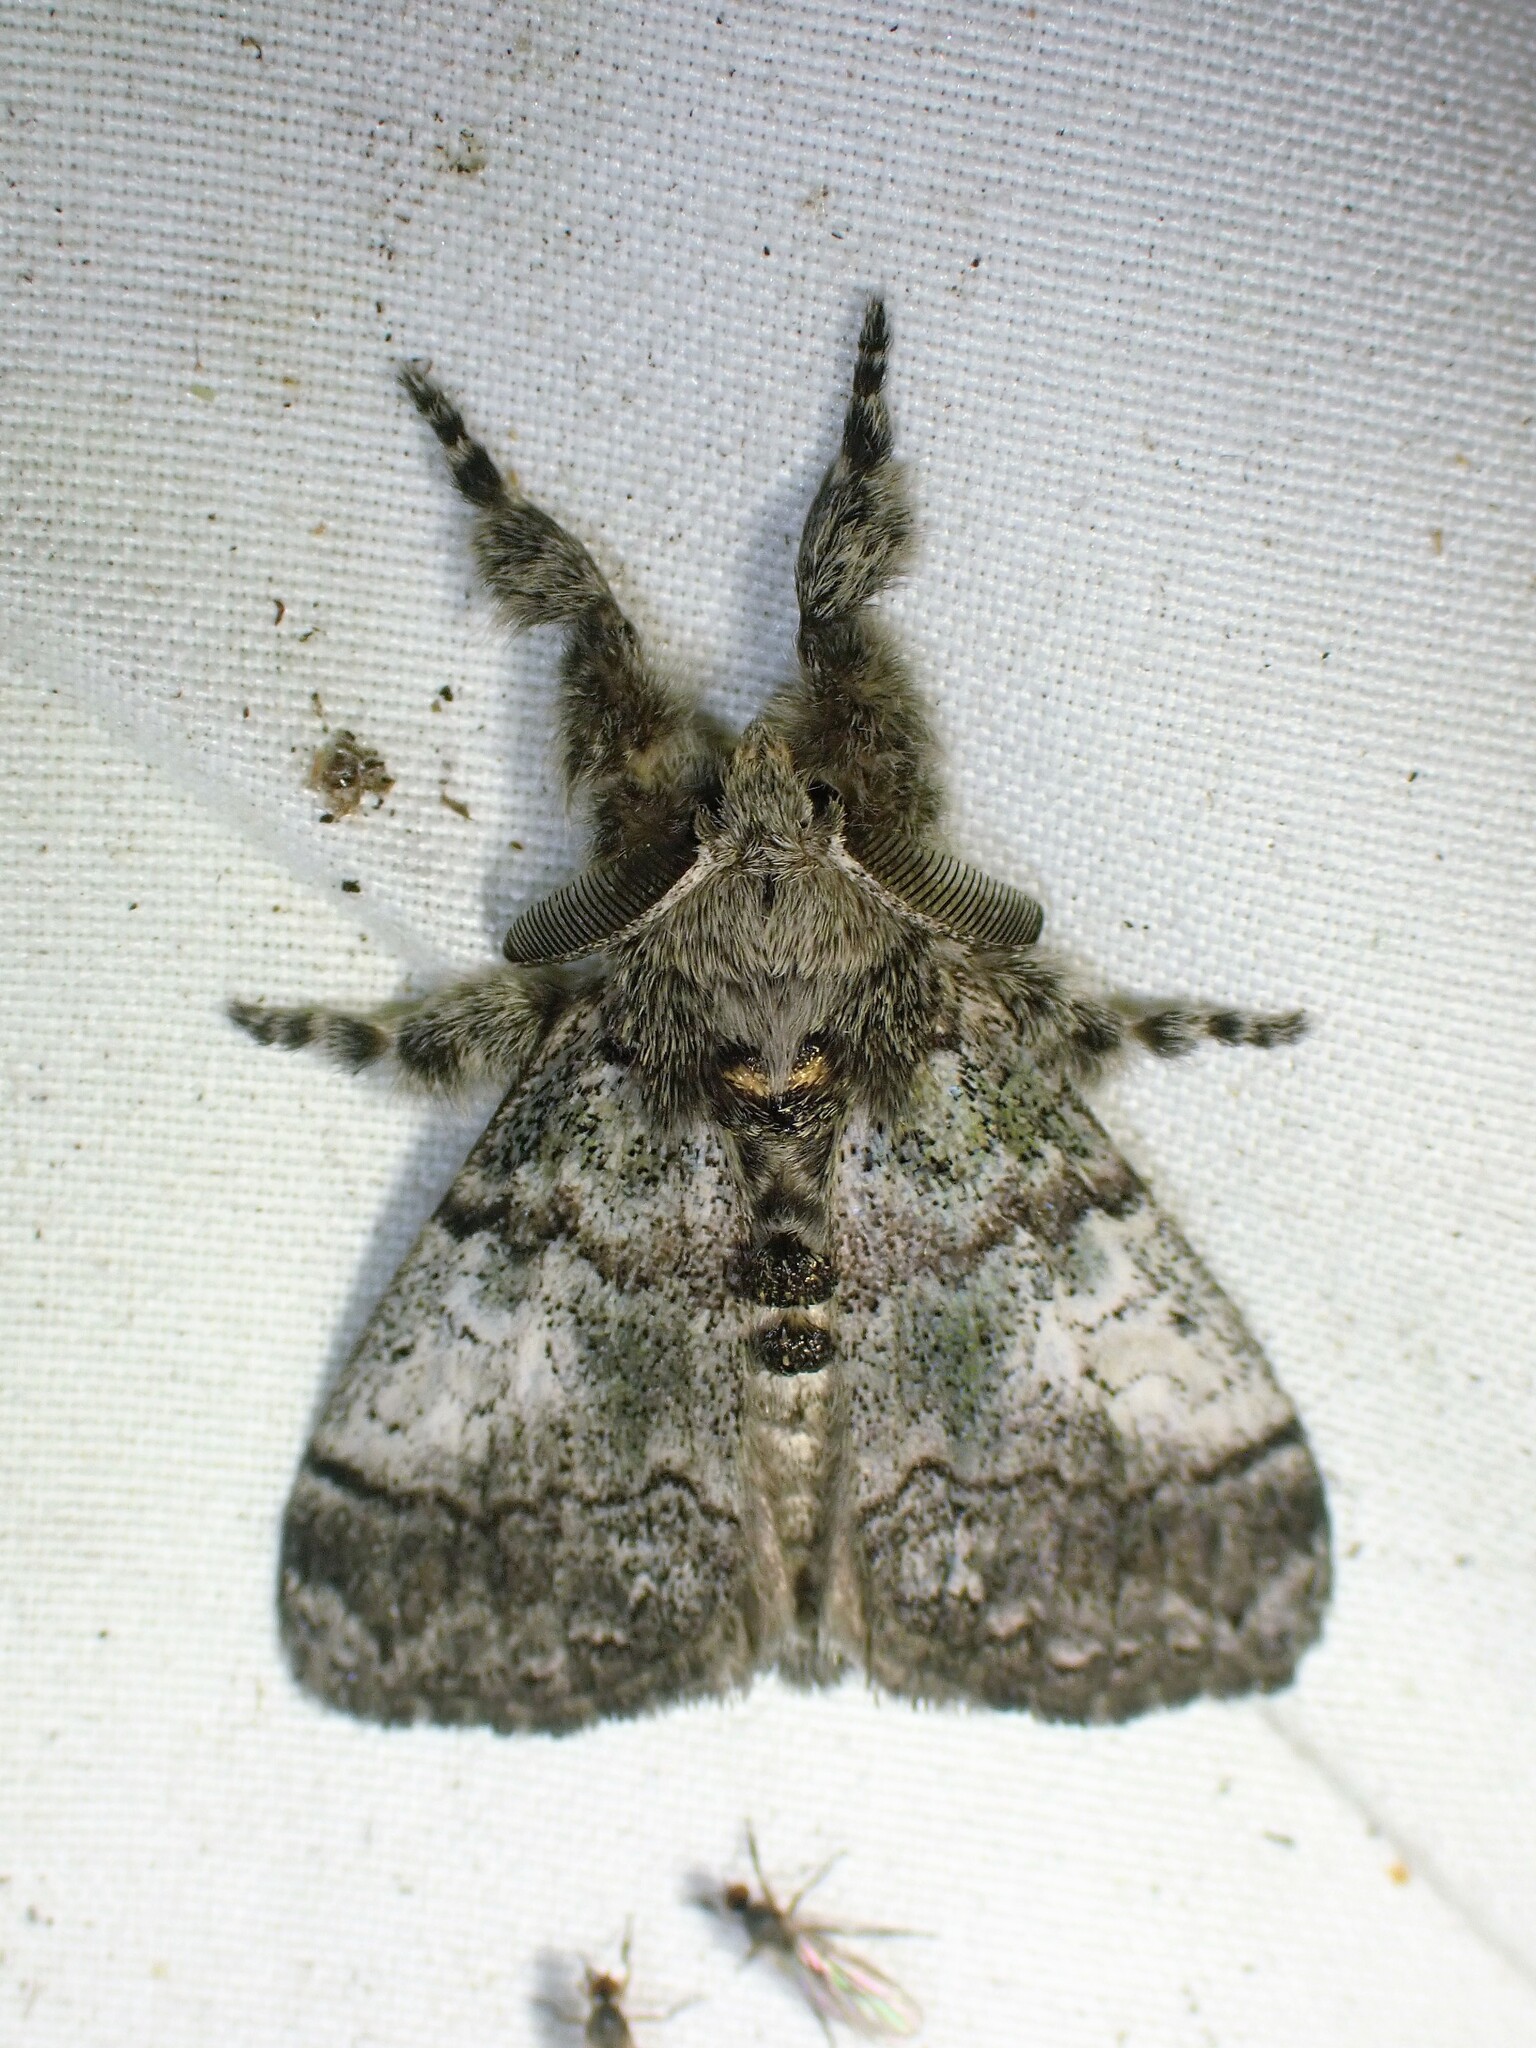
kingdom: Animalia
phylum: Arthropoda
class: Insecta
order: Lepidoptera
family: Erebidae
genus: Dasychira
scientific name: Dasychira vagans
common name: Variable tussock moth
